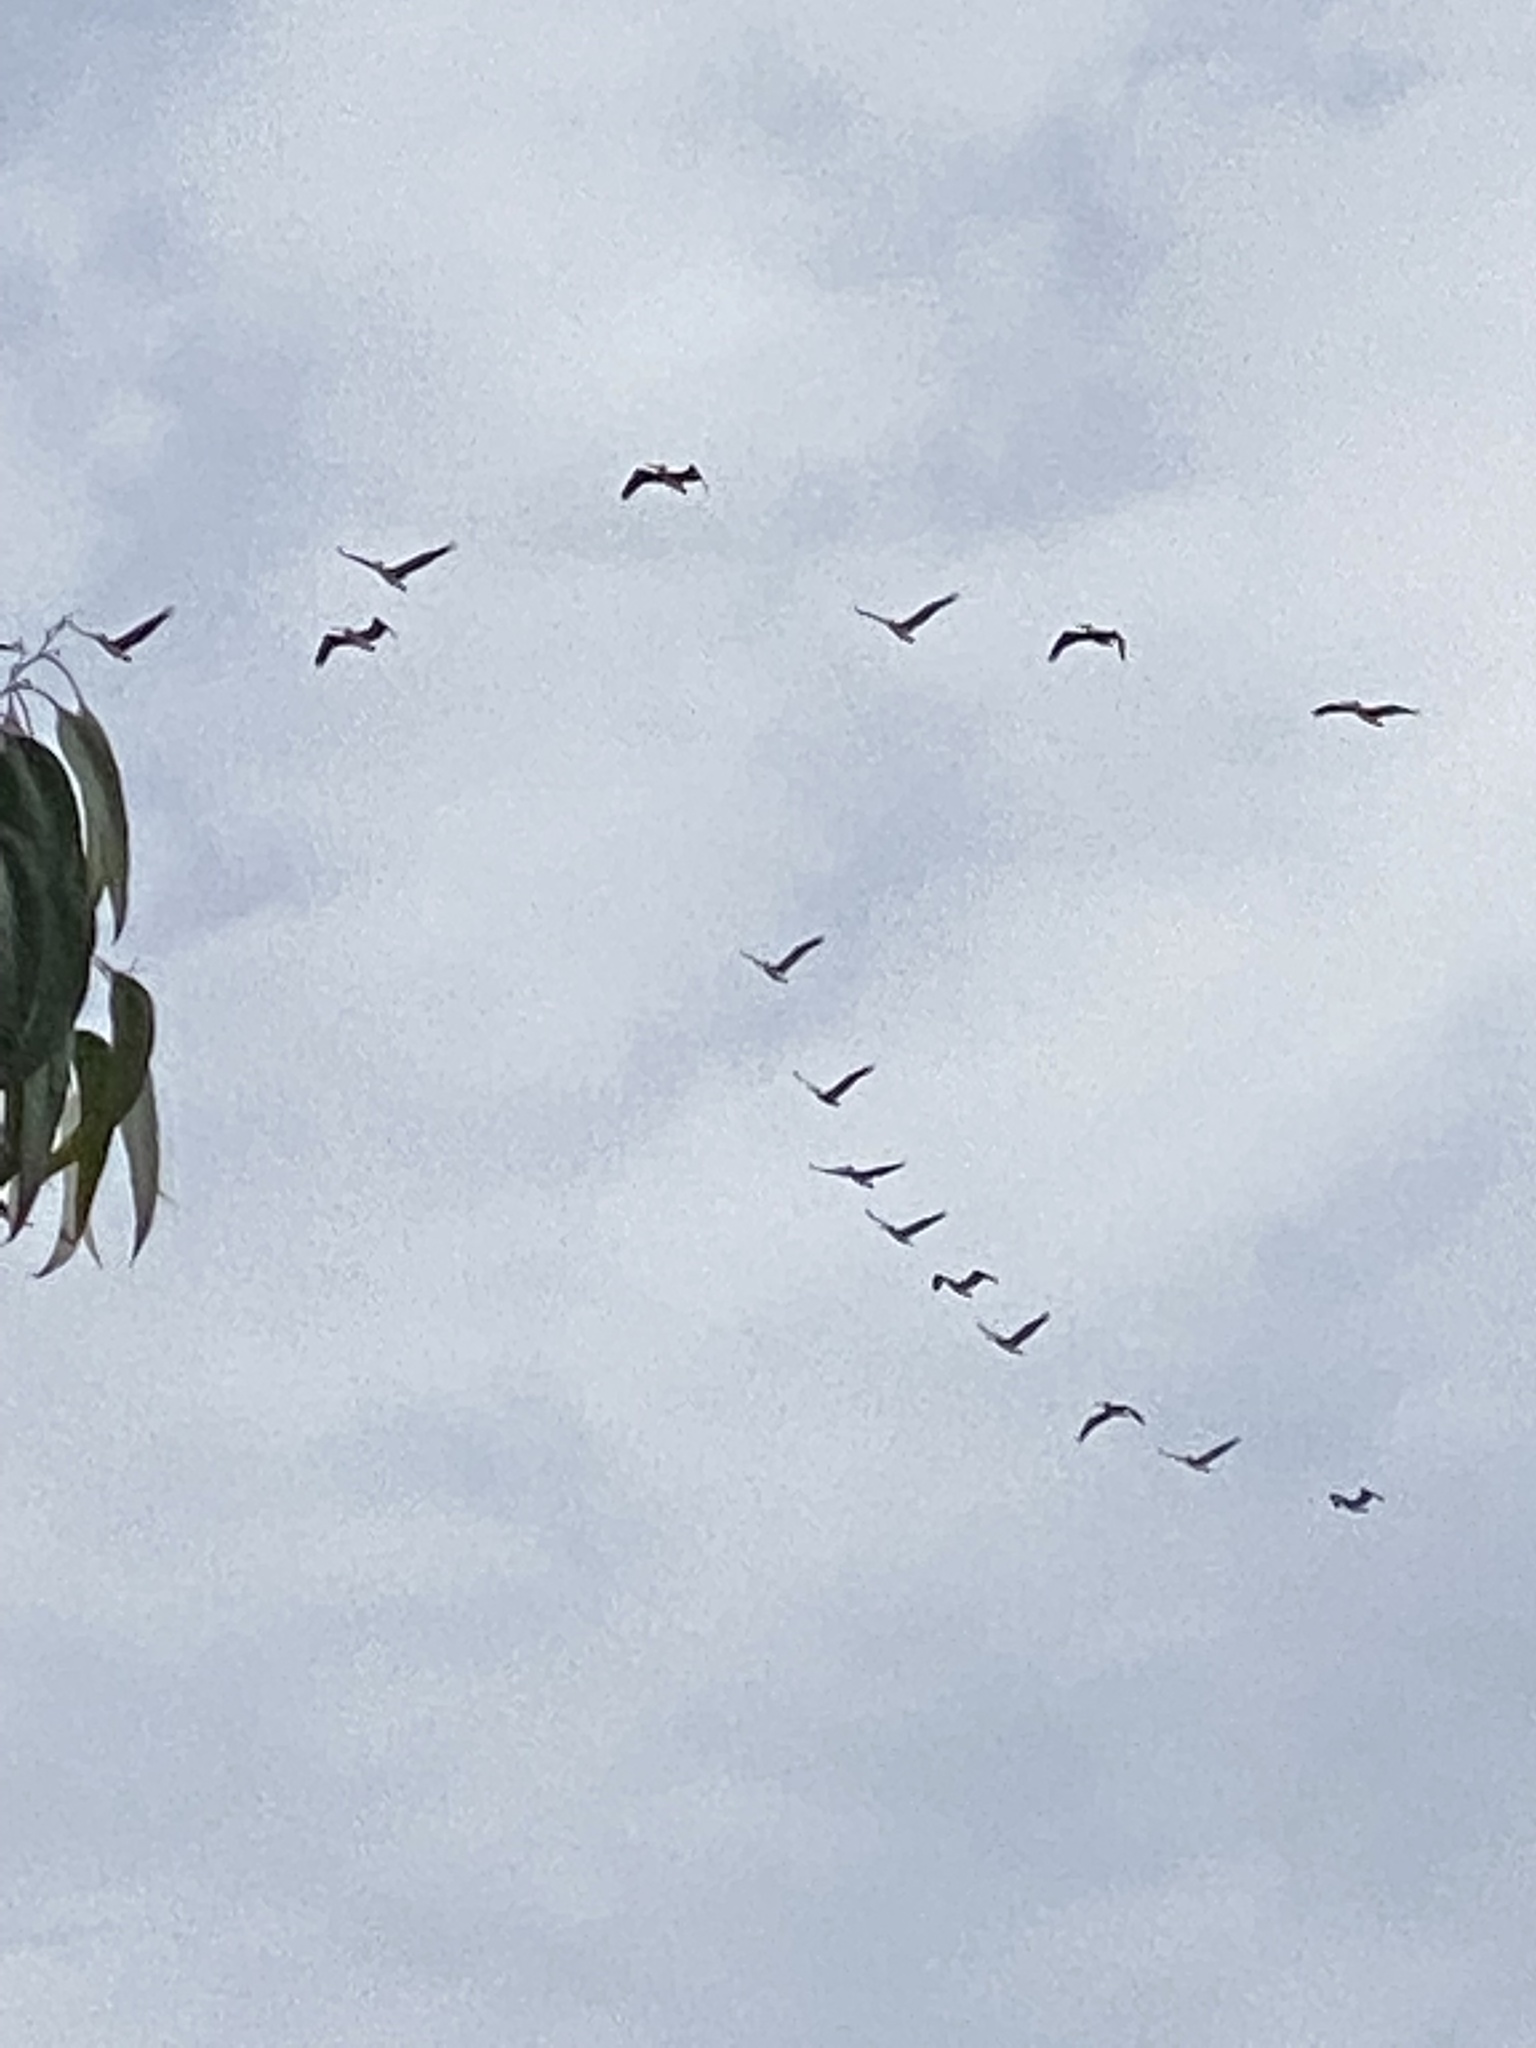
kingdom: Animalia
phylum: Chordata
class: Aves
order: Pelecaniformes
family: Pelecanidae
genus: Pelecanus
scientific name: Pelecanus occidentalis
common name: Brown pelican
